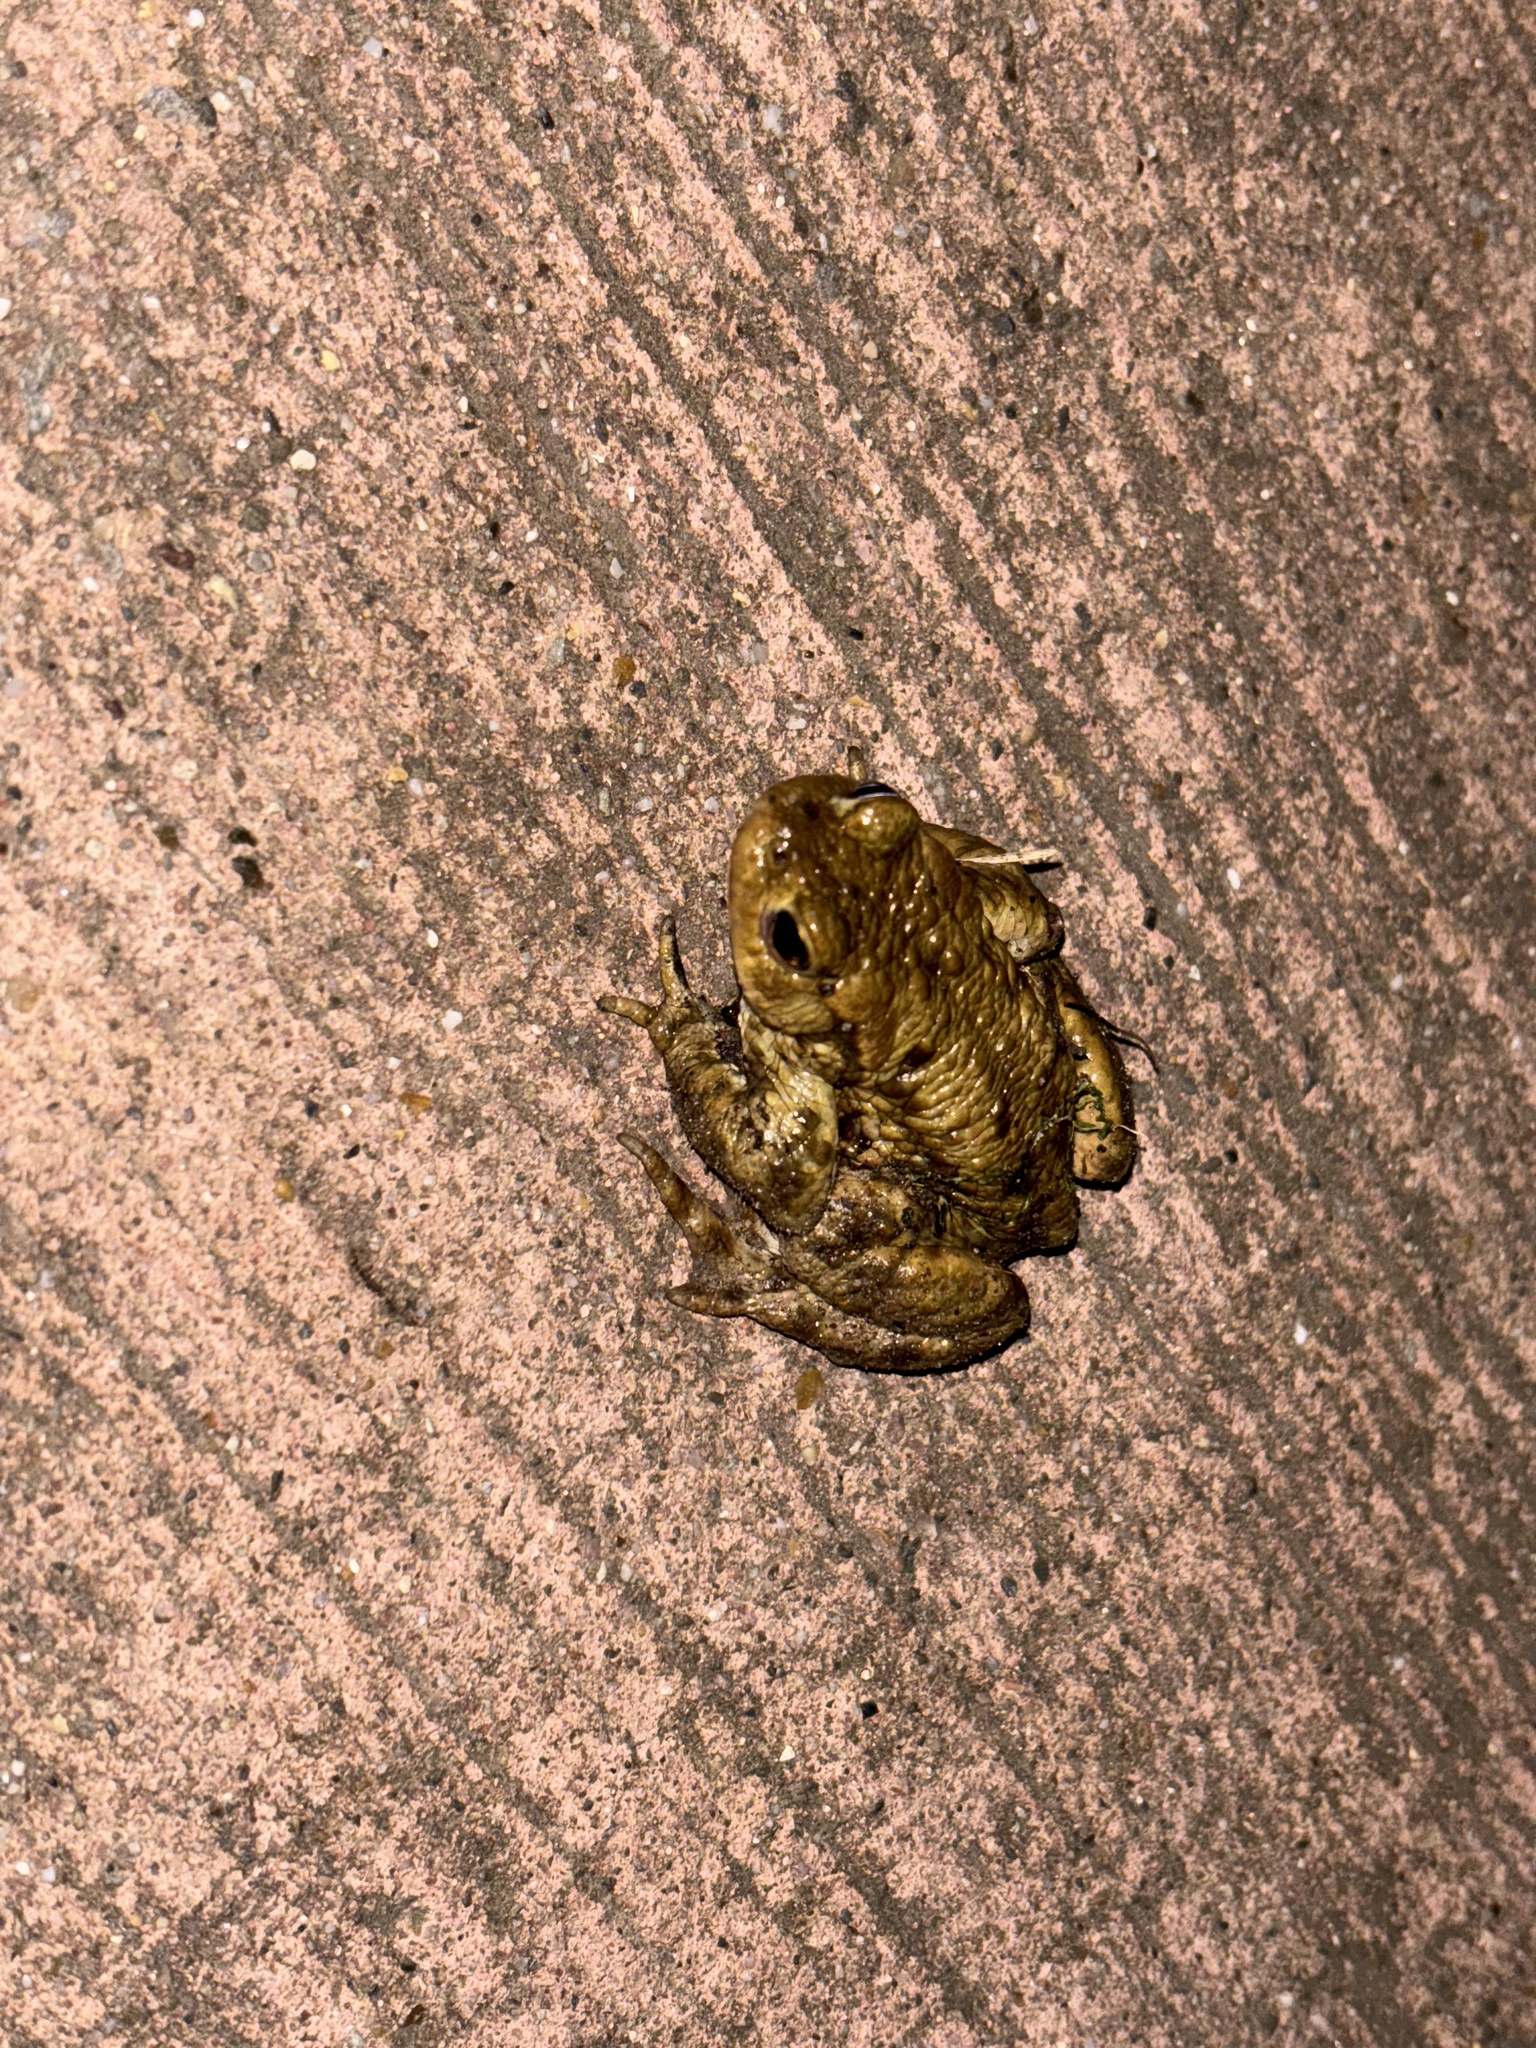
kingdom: Animalia
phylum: Chordata
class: Amphibia
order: Anura
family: Bufonidae
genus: Bufo
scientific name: Bufo bufo
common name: Common toad
